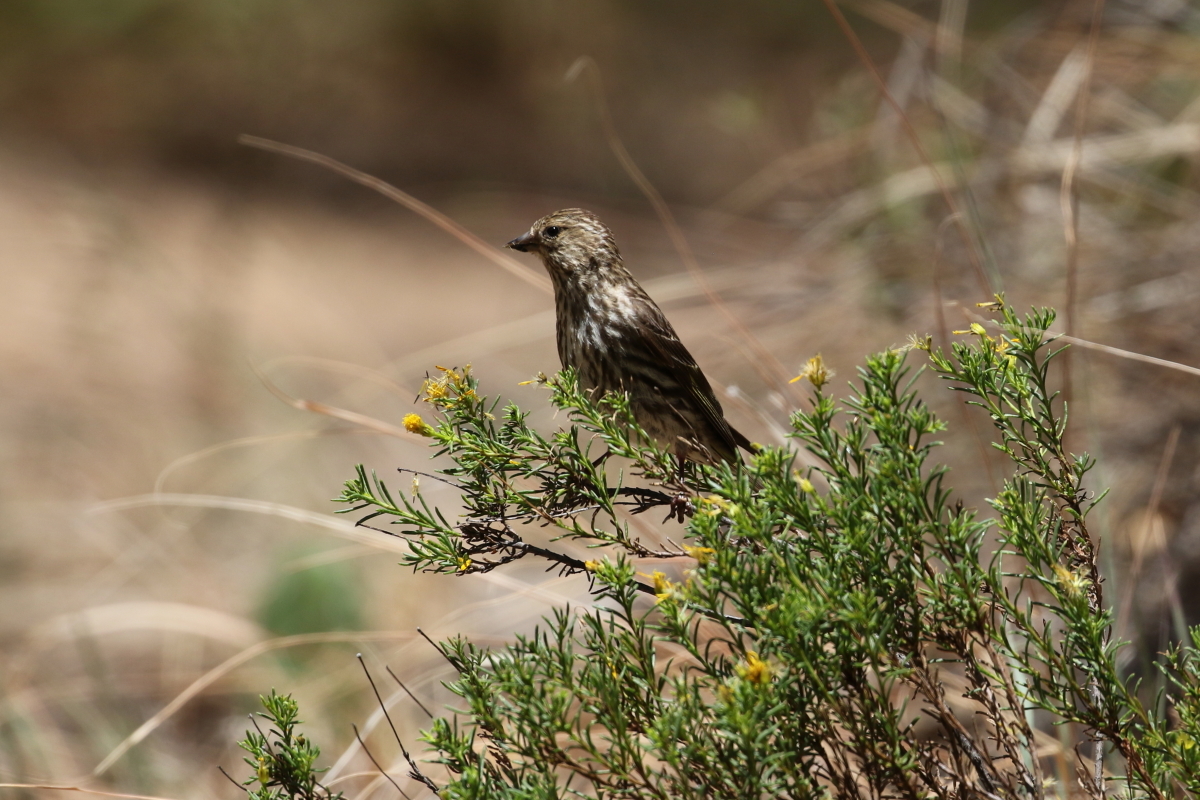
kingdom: Animalia
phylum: Chordata
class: Aves
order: Passeriformes
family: Fringillidae
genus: Spinus
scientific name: Spinus pinus
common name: Pine siskin
